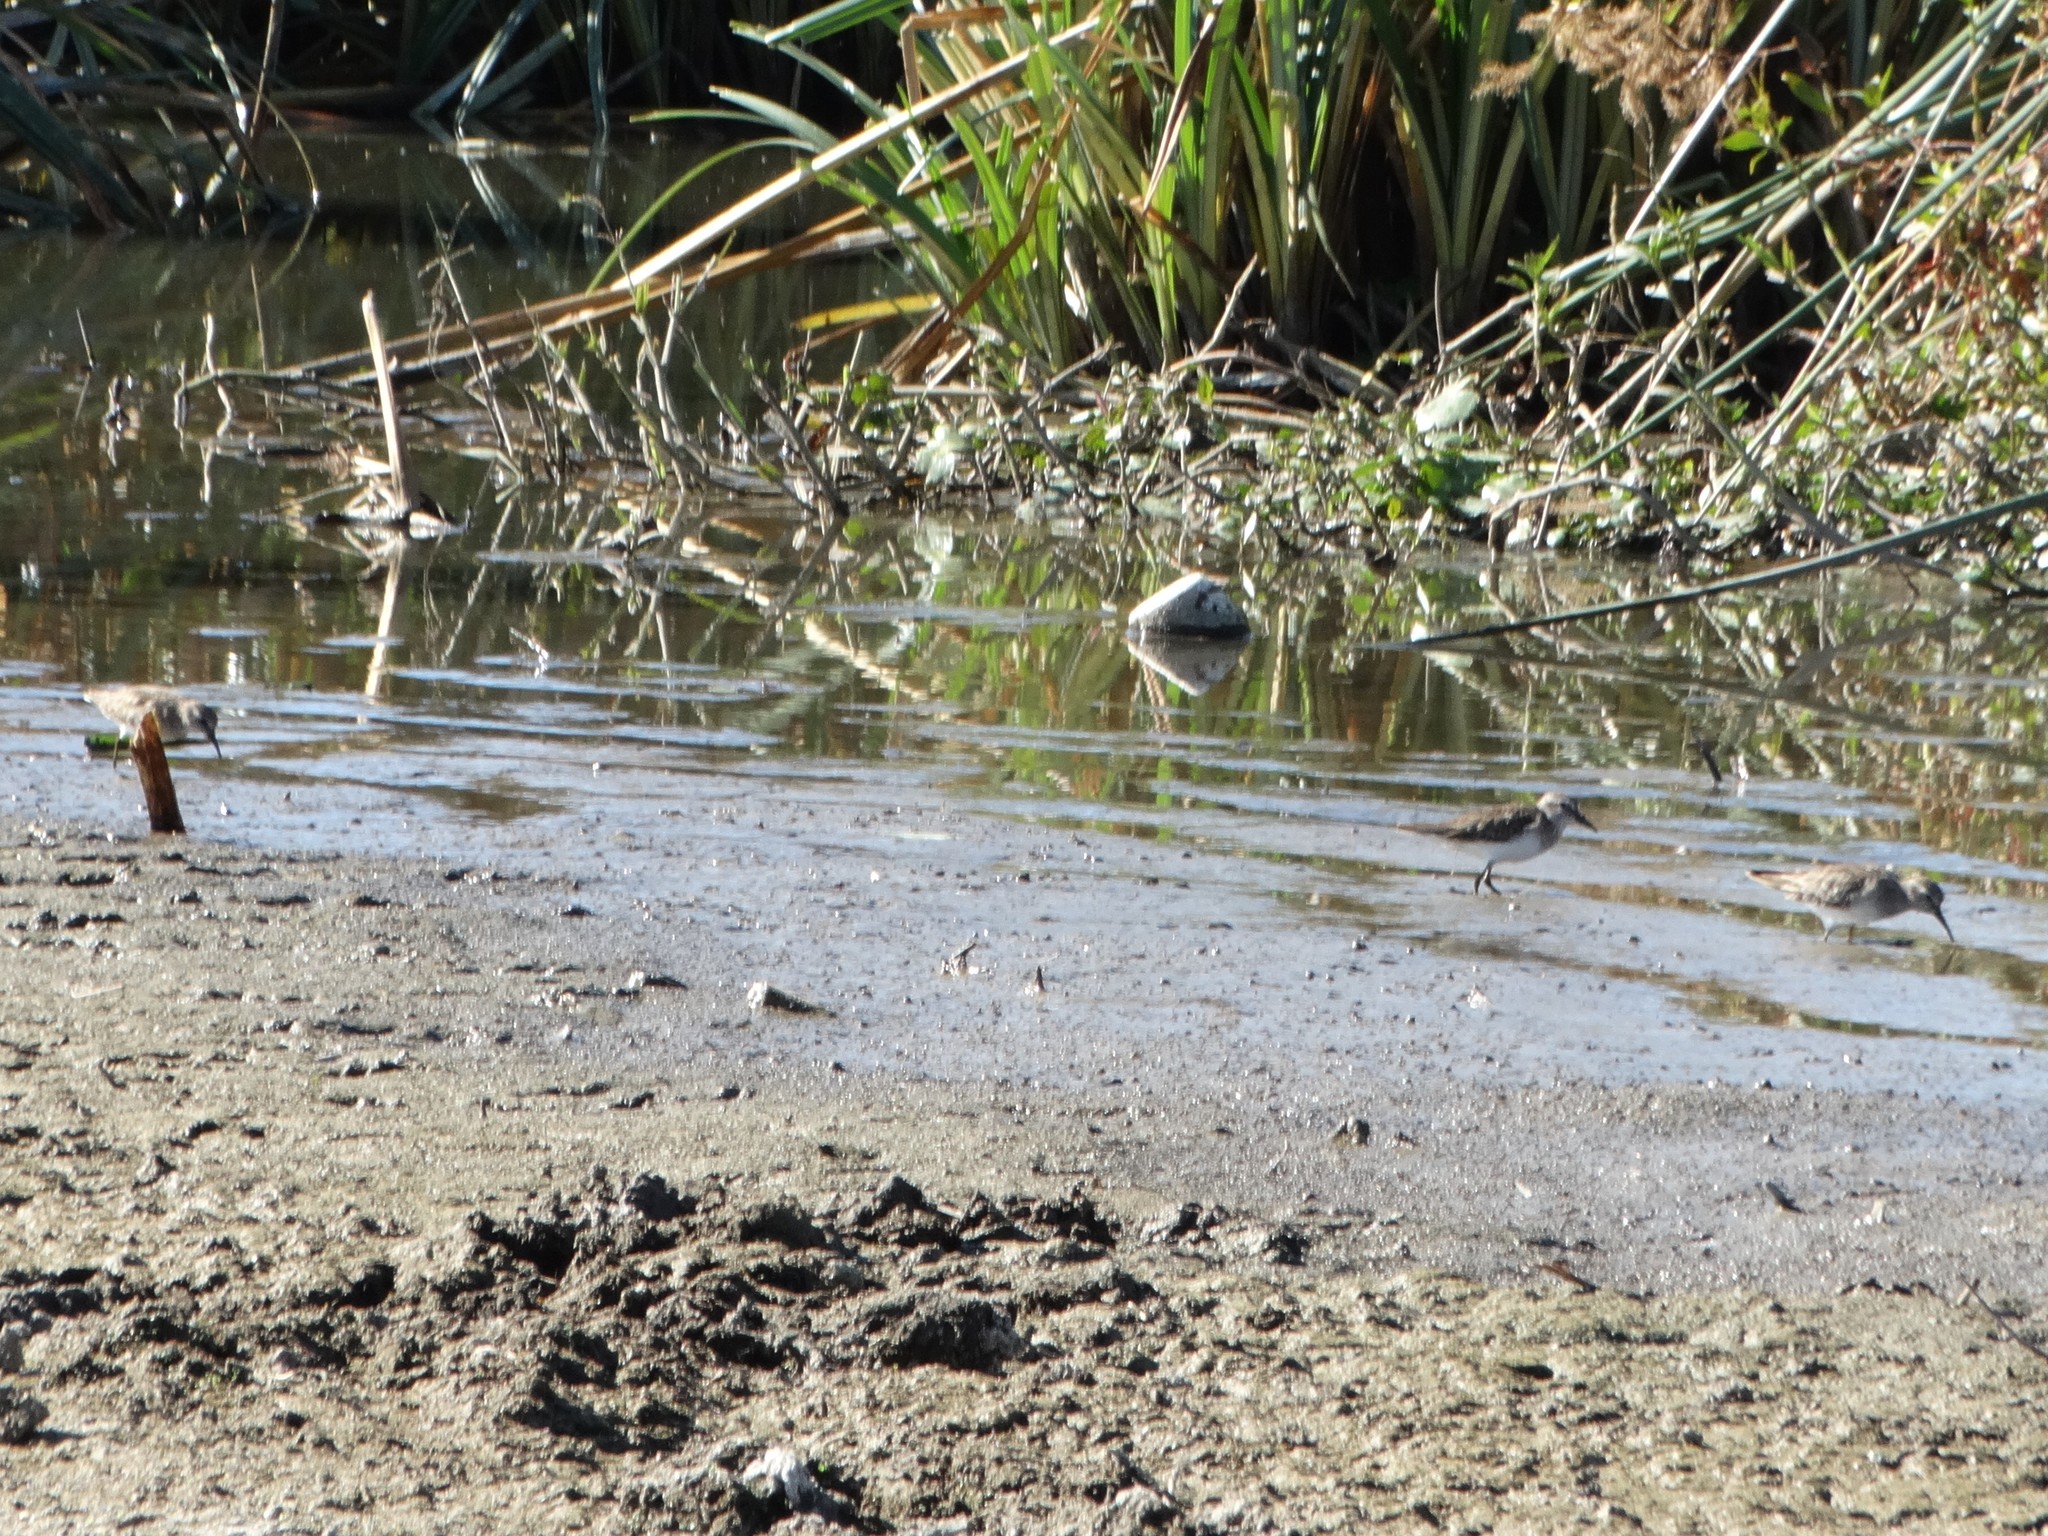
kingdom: Animalia
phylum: Chordata
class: Aves
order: Charadriiformes
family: Scolopacidae
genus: Calidris
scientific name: Calidris minutilla
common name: Least sandpiper
